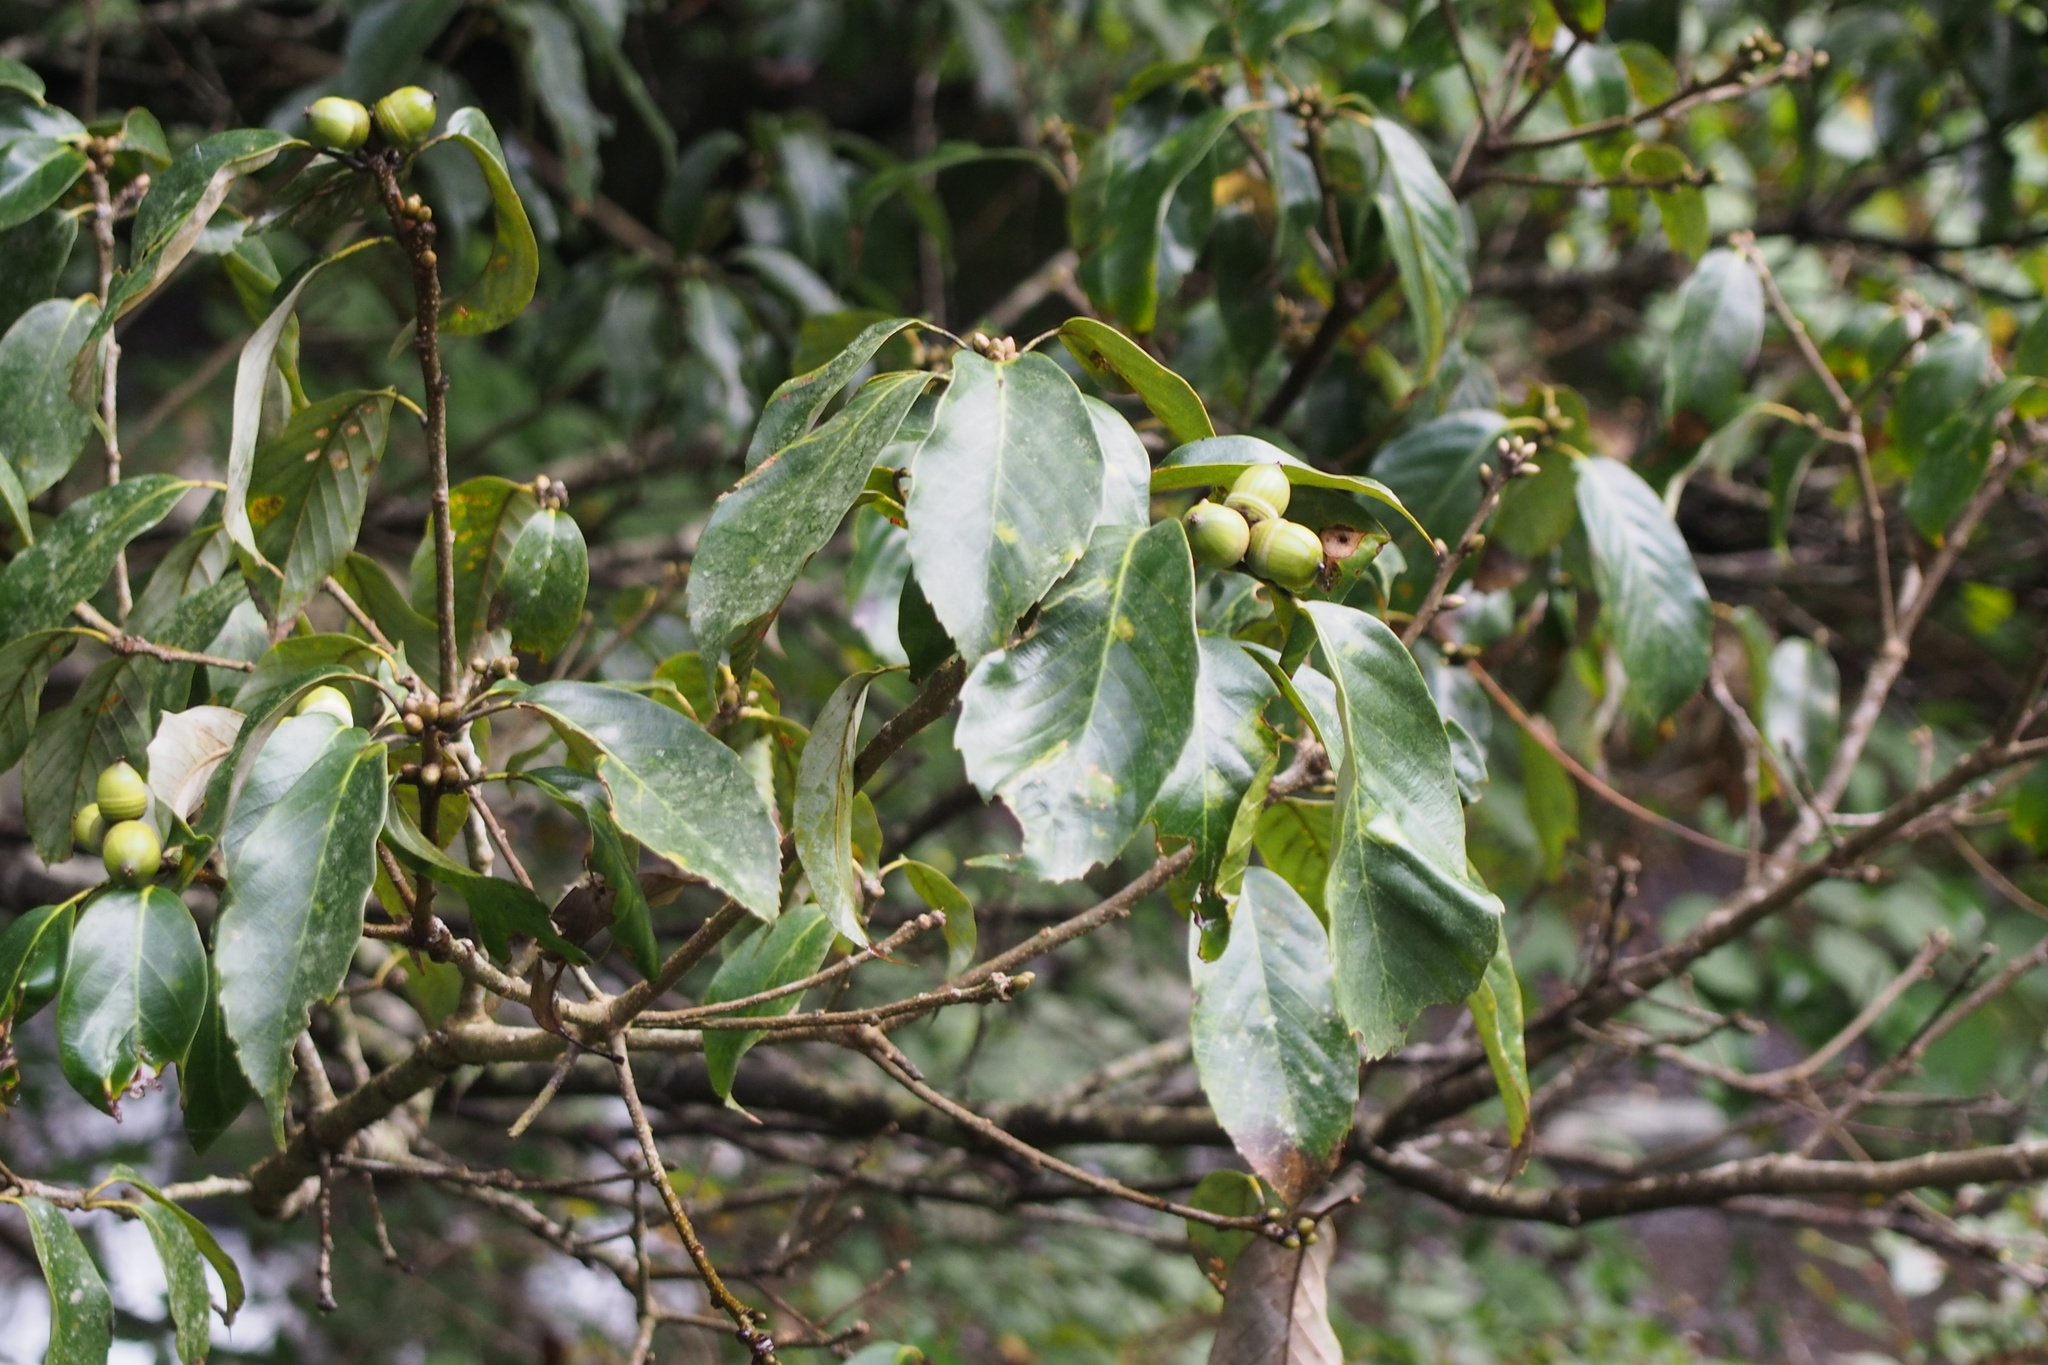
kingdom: Plantae
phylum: Tracheophyta
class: Magnoliopsida
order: Fagales
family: Fagaceae
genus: Quercus
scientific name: Quercus glauca
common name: Ring-cup oak
